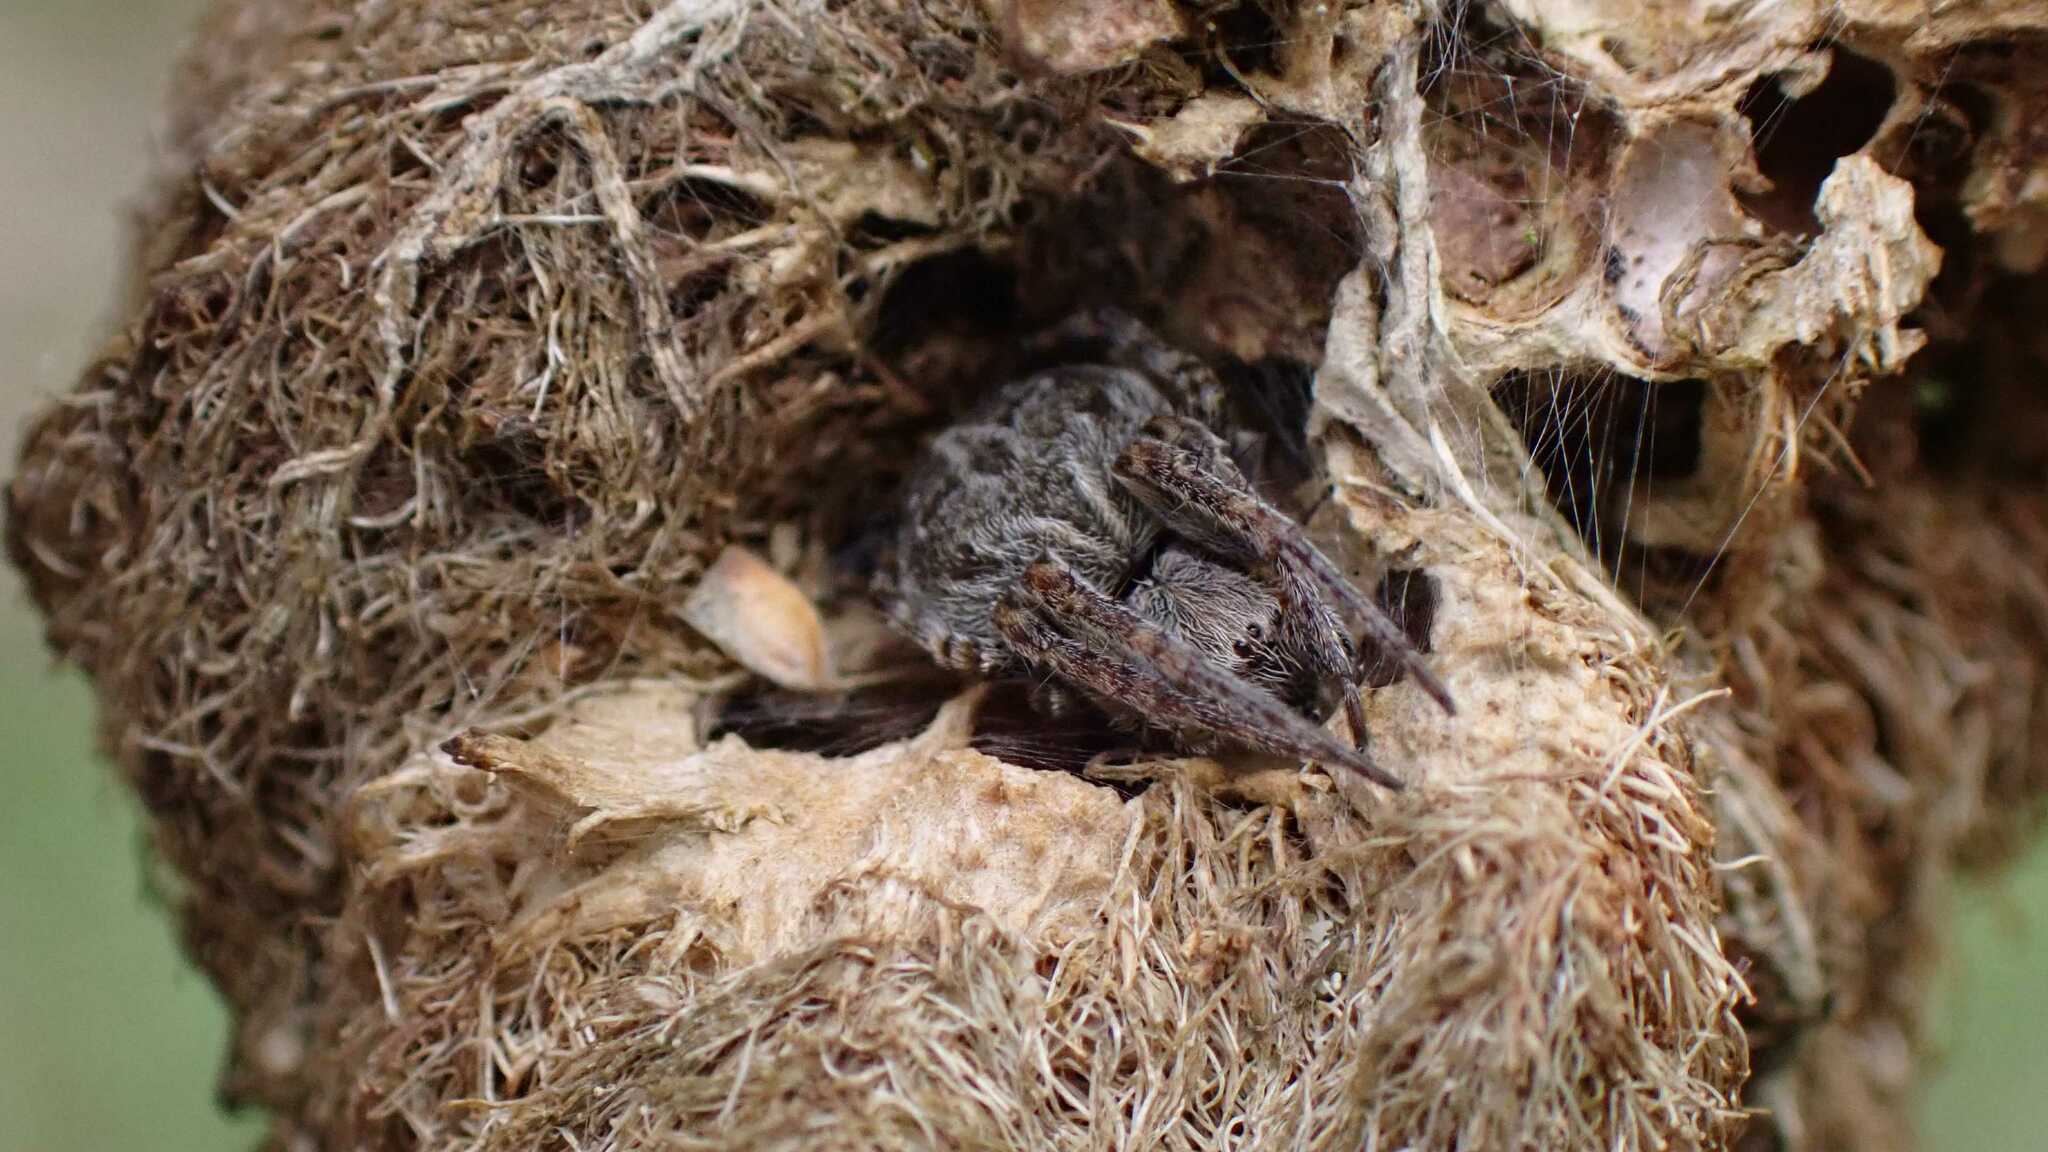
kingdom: Animalia
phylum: Arthropoda
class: Arachnida
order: Araneae
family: Araneidae
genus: Agalenatea
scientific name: Agalenatea redii
